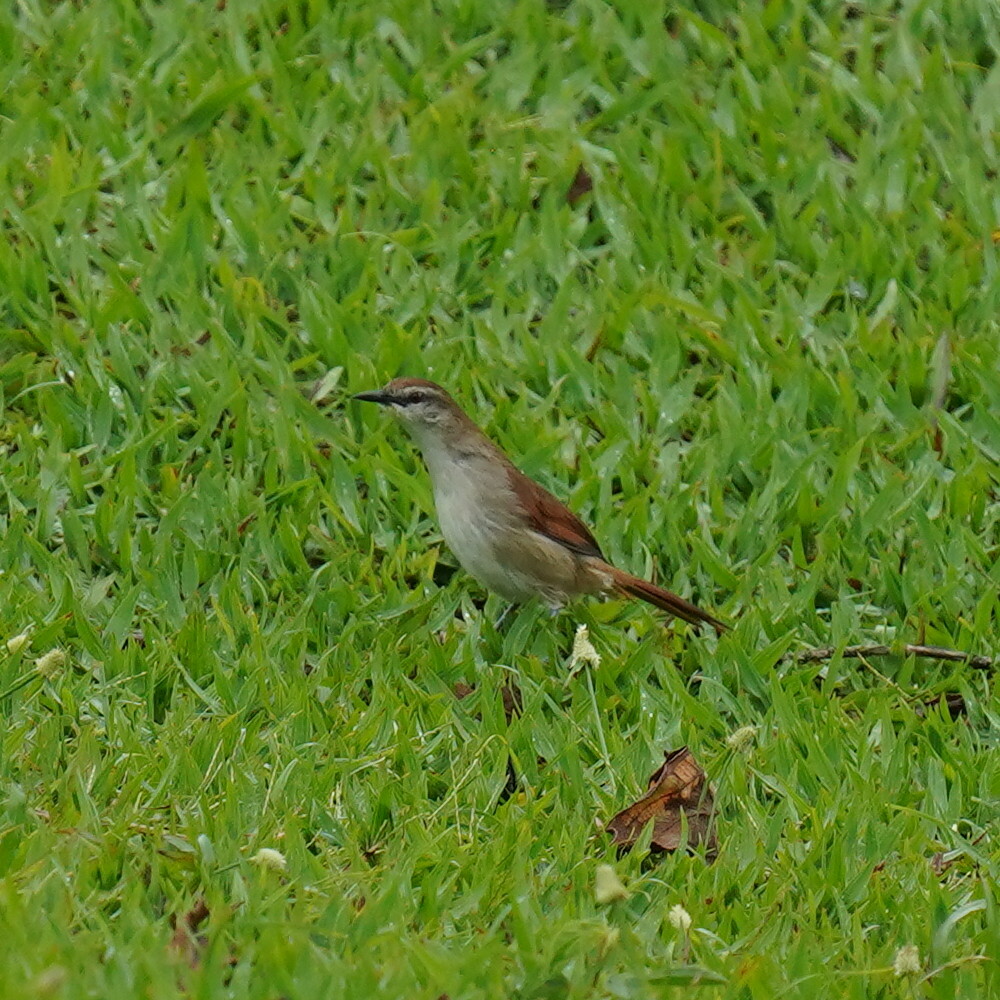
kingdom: Animalia
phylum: Chordata
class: Aves
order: Passeriformes
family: Furnariidae
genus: Certhiaxis
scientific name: Certhiaxis cinnamomeus
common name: Yellow-chinned spinetail
